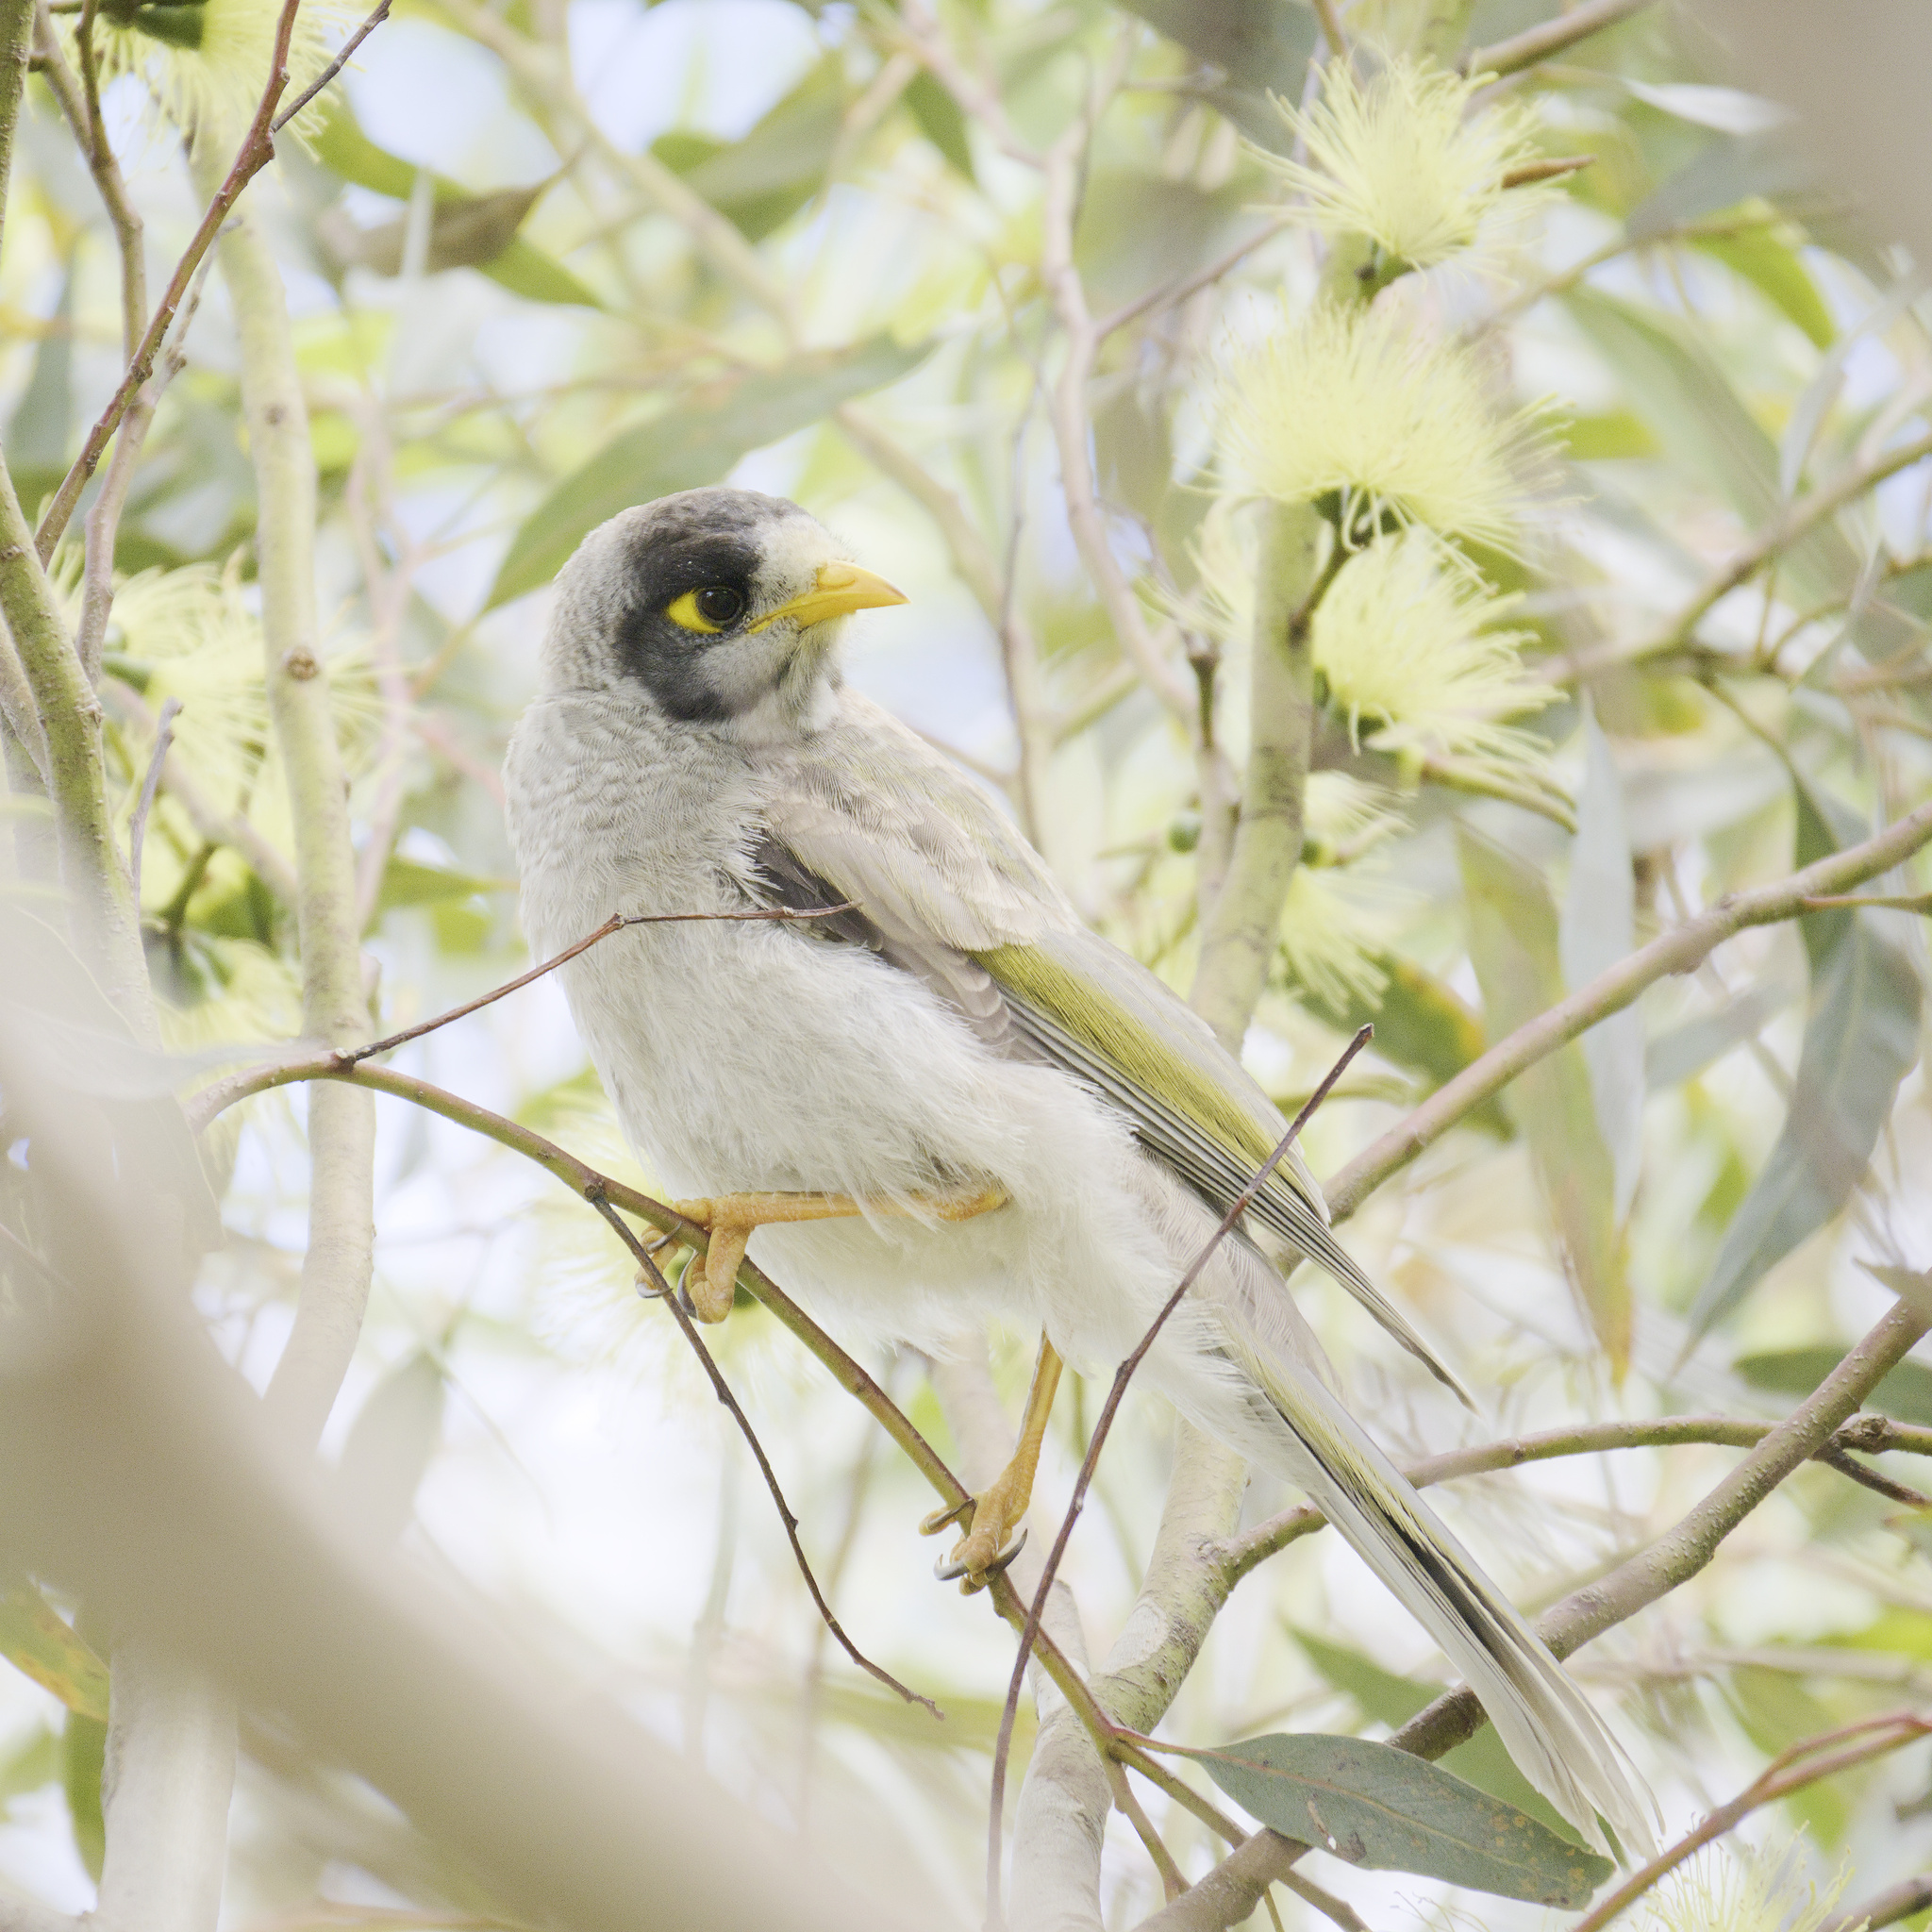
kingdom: Animalia
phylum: Chordata
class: Aves
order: Passeriformes
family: Meliphagidae
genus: Manorina
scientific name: Manorina melanocephala
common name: Noisy miner
